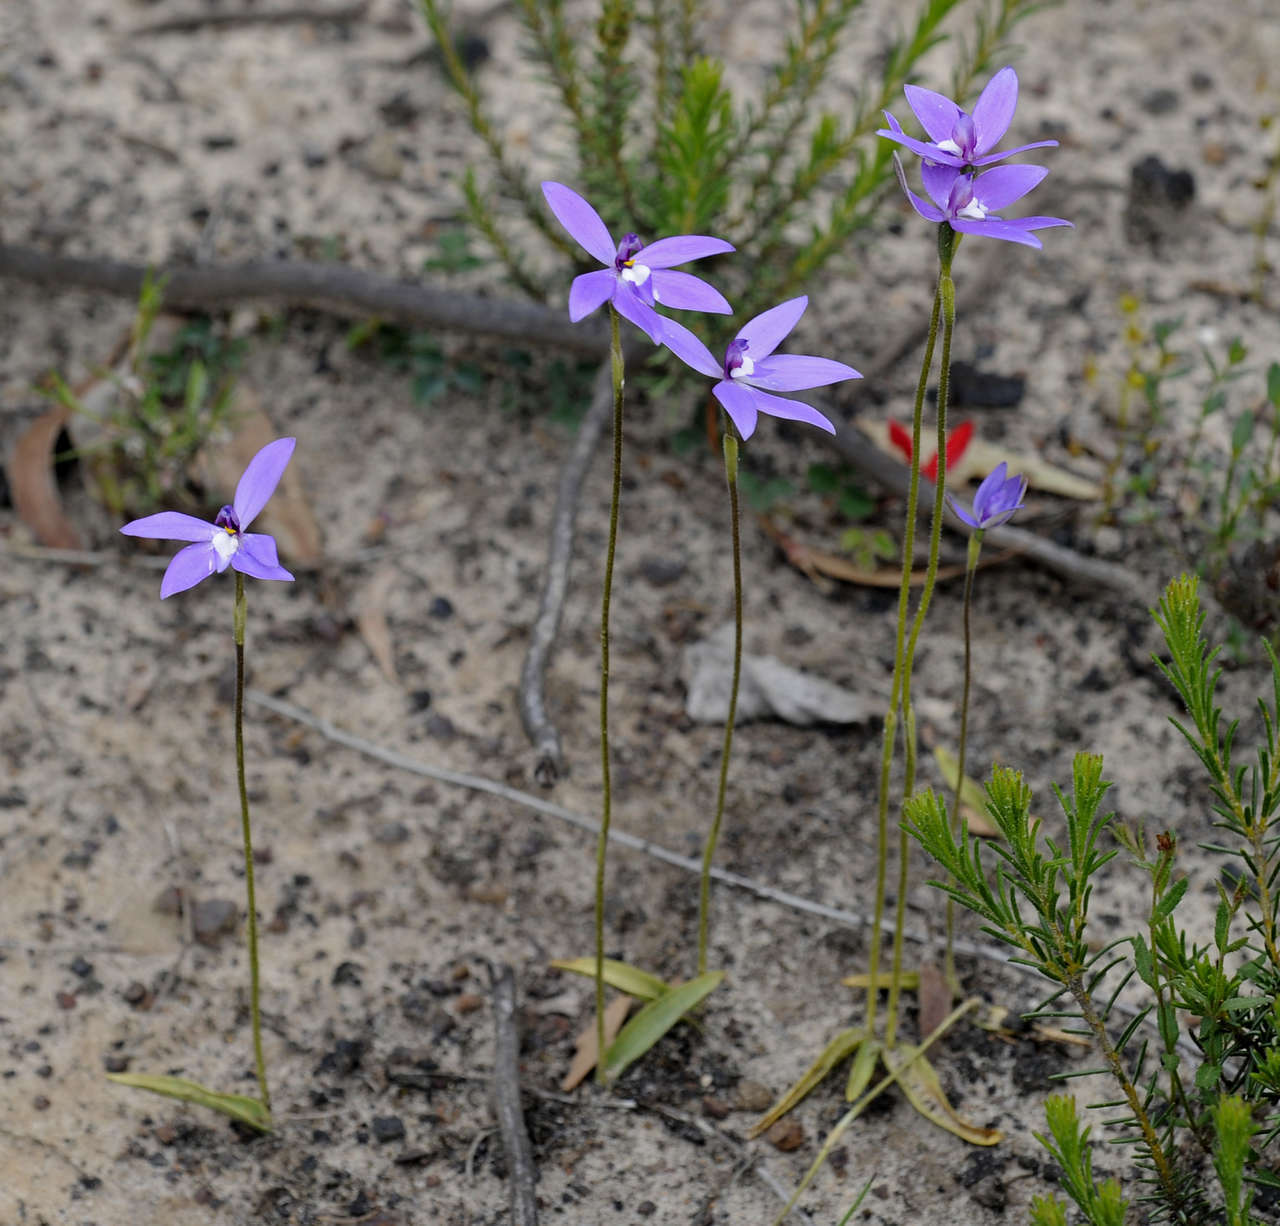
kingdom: Plantae
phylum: Tracheophyta
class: Liliopsida
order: Asparagales
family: Orchidaceae
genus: Caladenia
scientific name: Caladenia major
